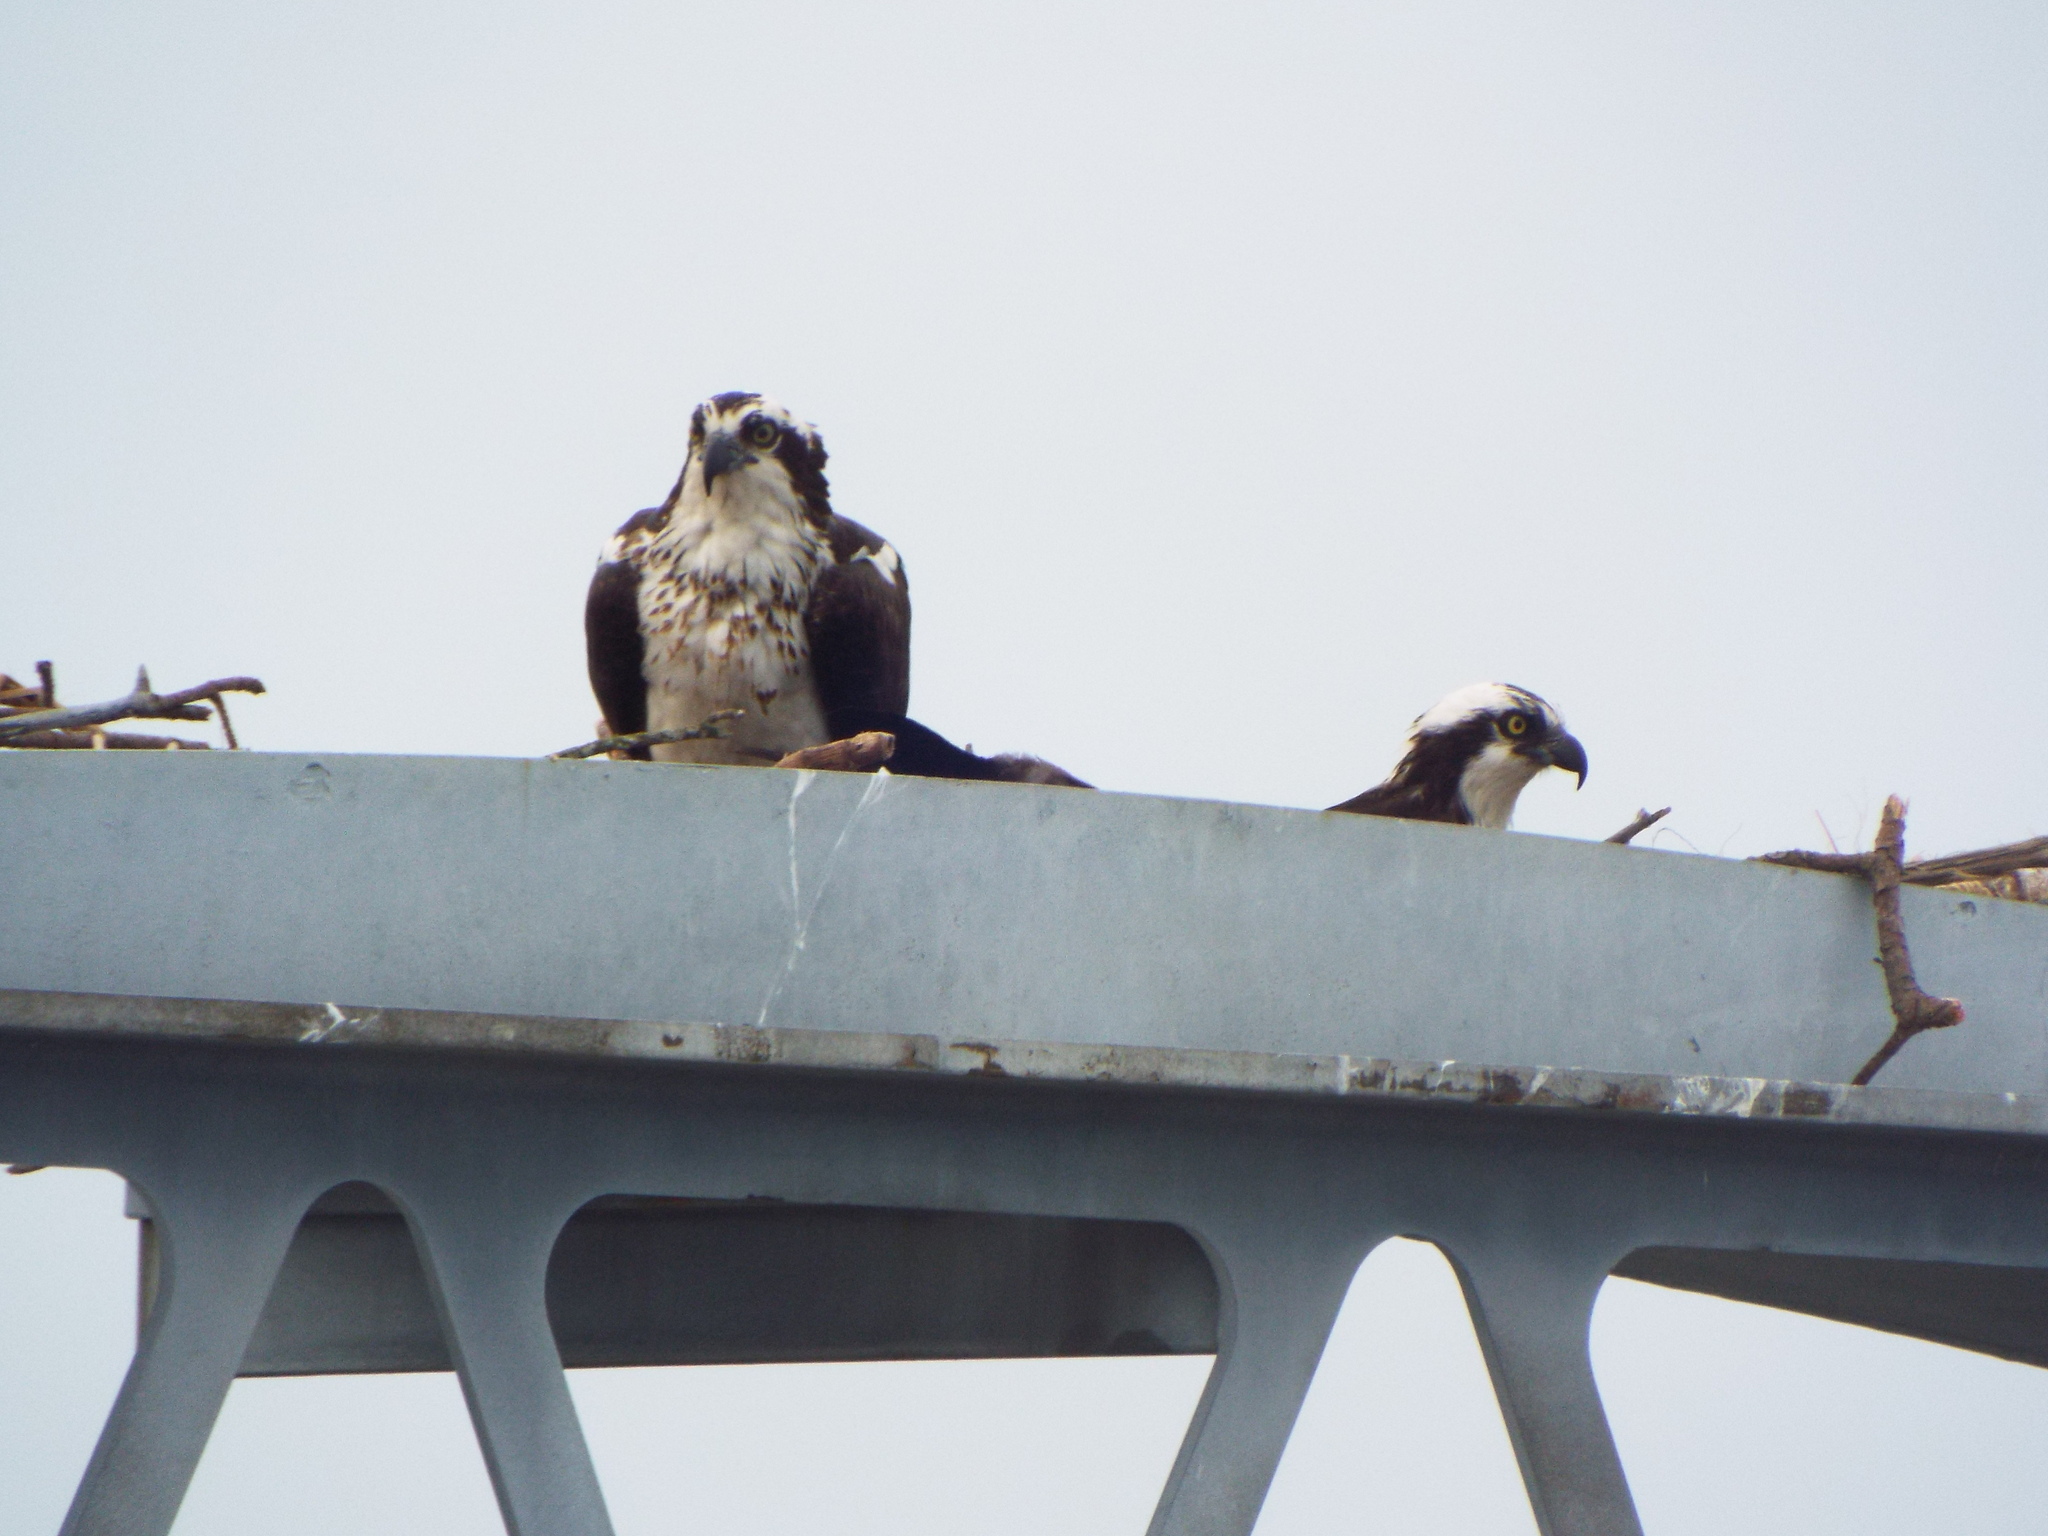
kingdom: Animalia
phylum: Chordata
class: Aves
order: Accipitriformes
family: Pandionidae
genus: Pandion
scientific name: Pandion haliaetus
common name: Osprey
